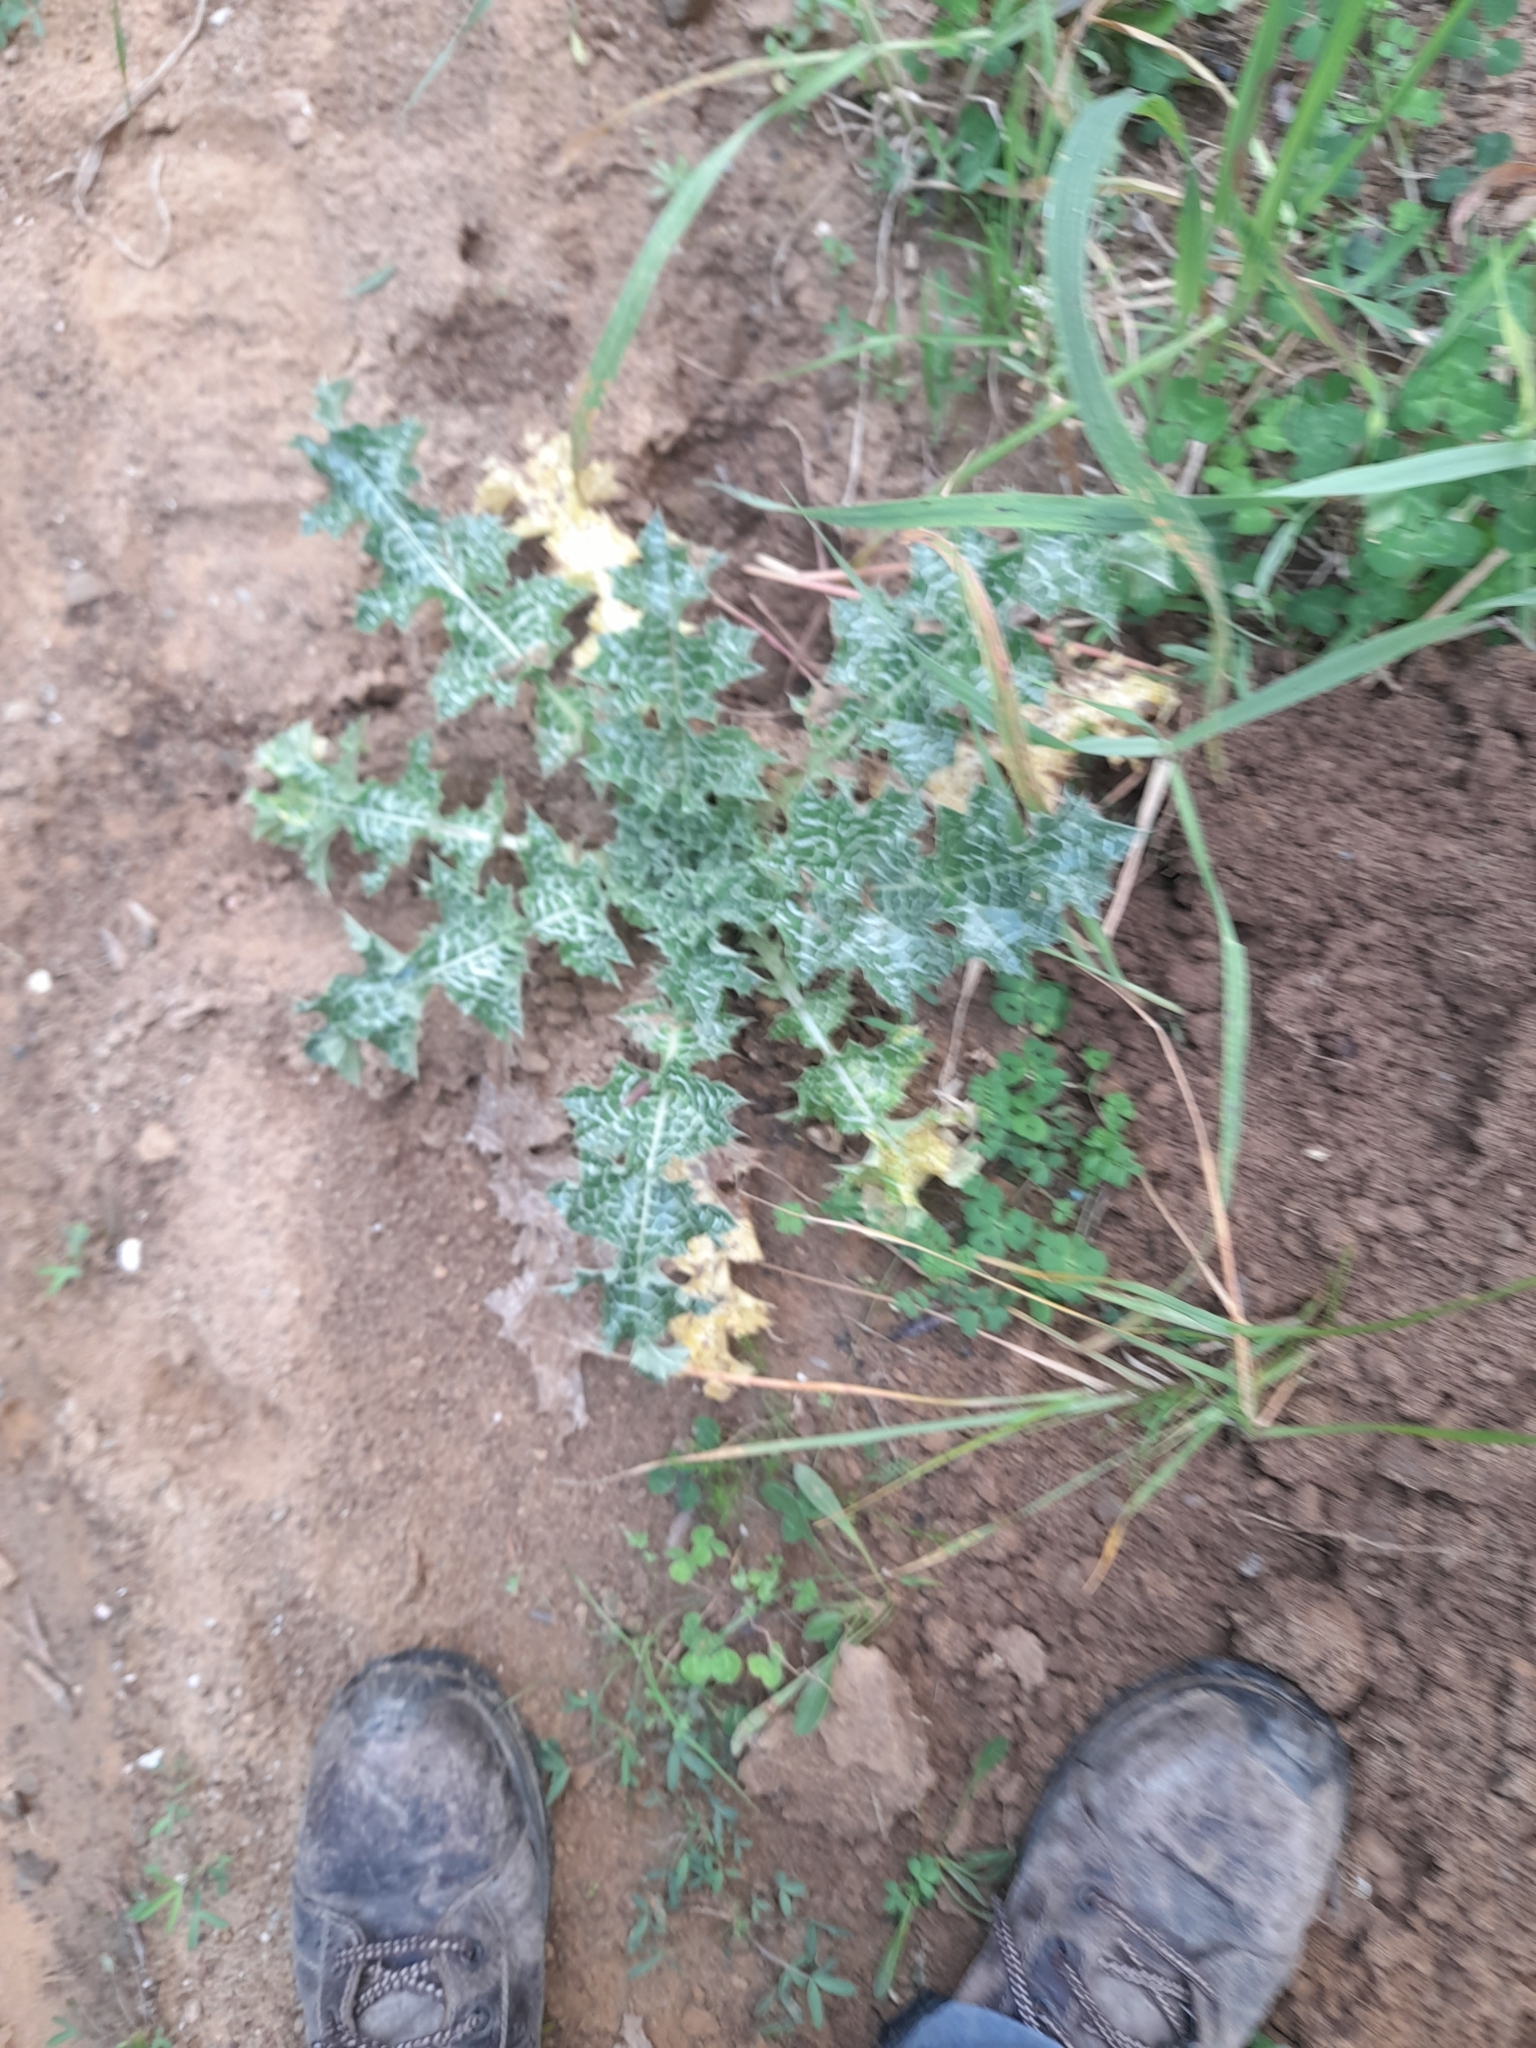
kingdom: Plantae
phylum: Tracheophyta
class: Magnoliopsida
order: Asterales
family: Asteraceae
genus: Silybum
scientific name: Silybum marianum
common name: Milk thistle
